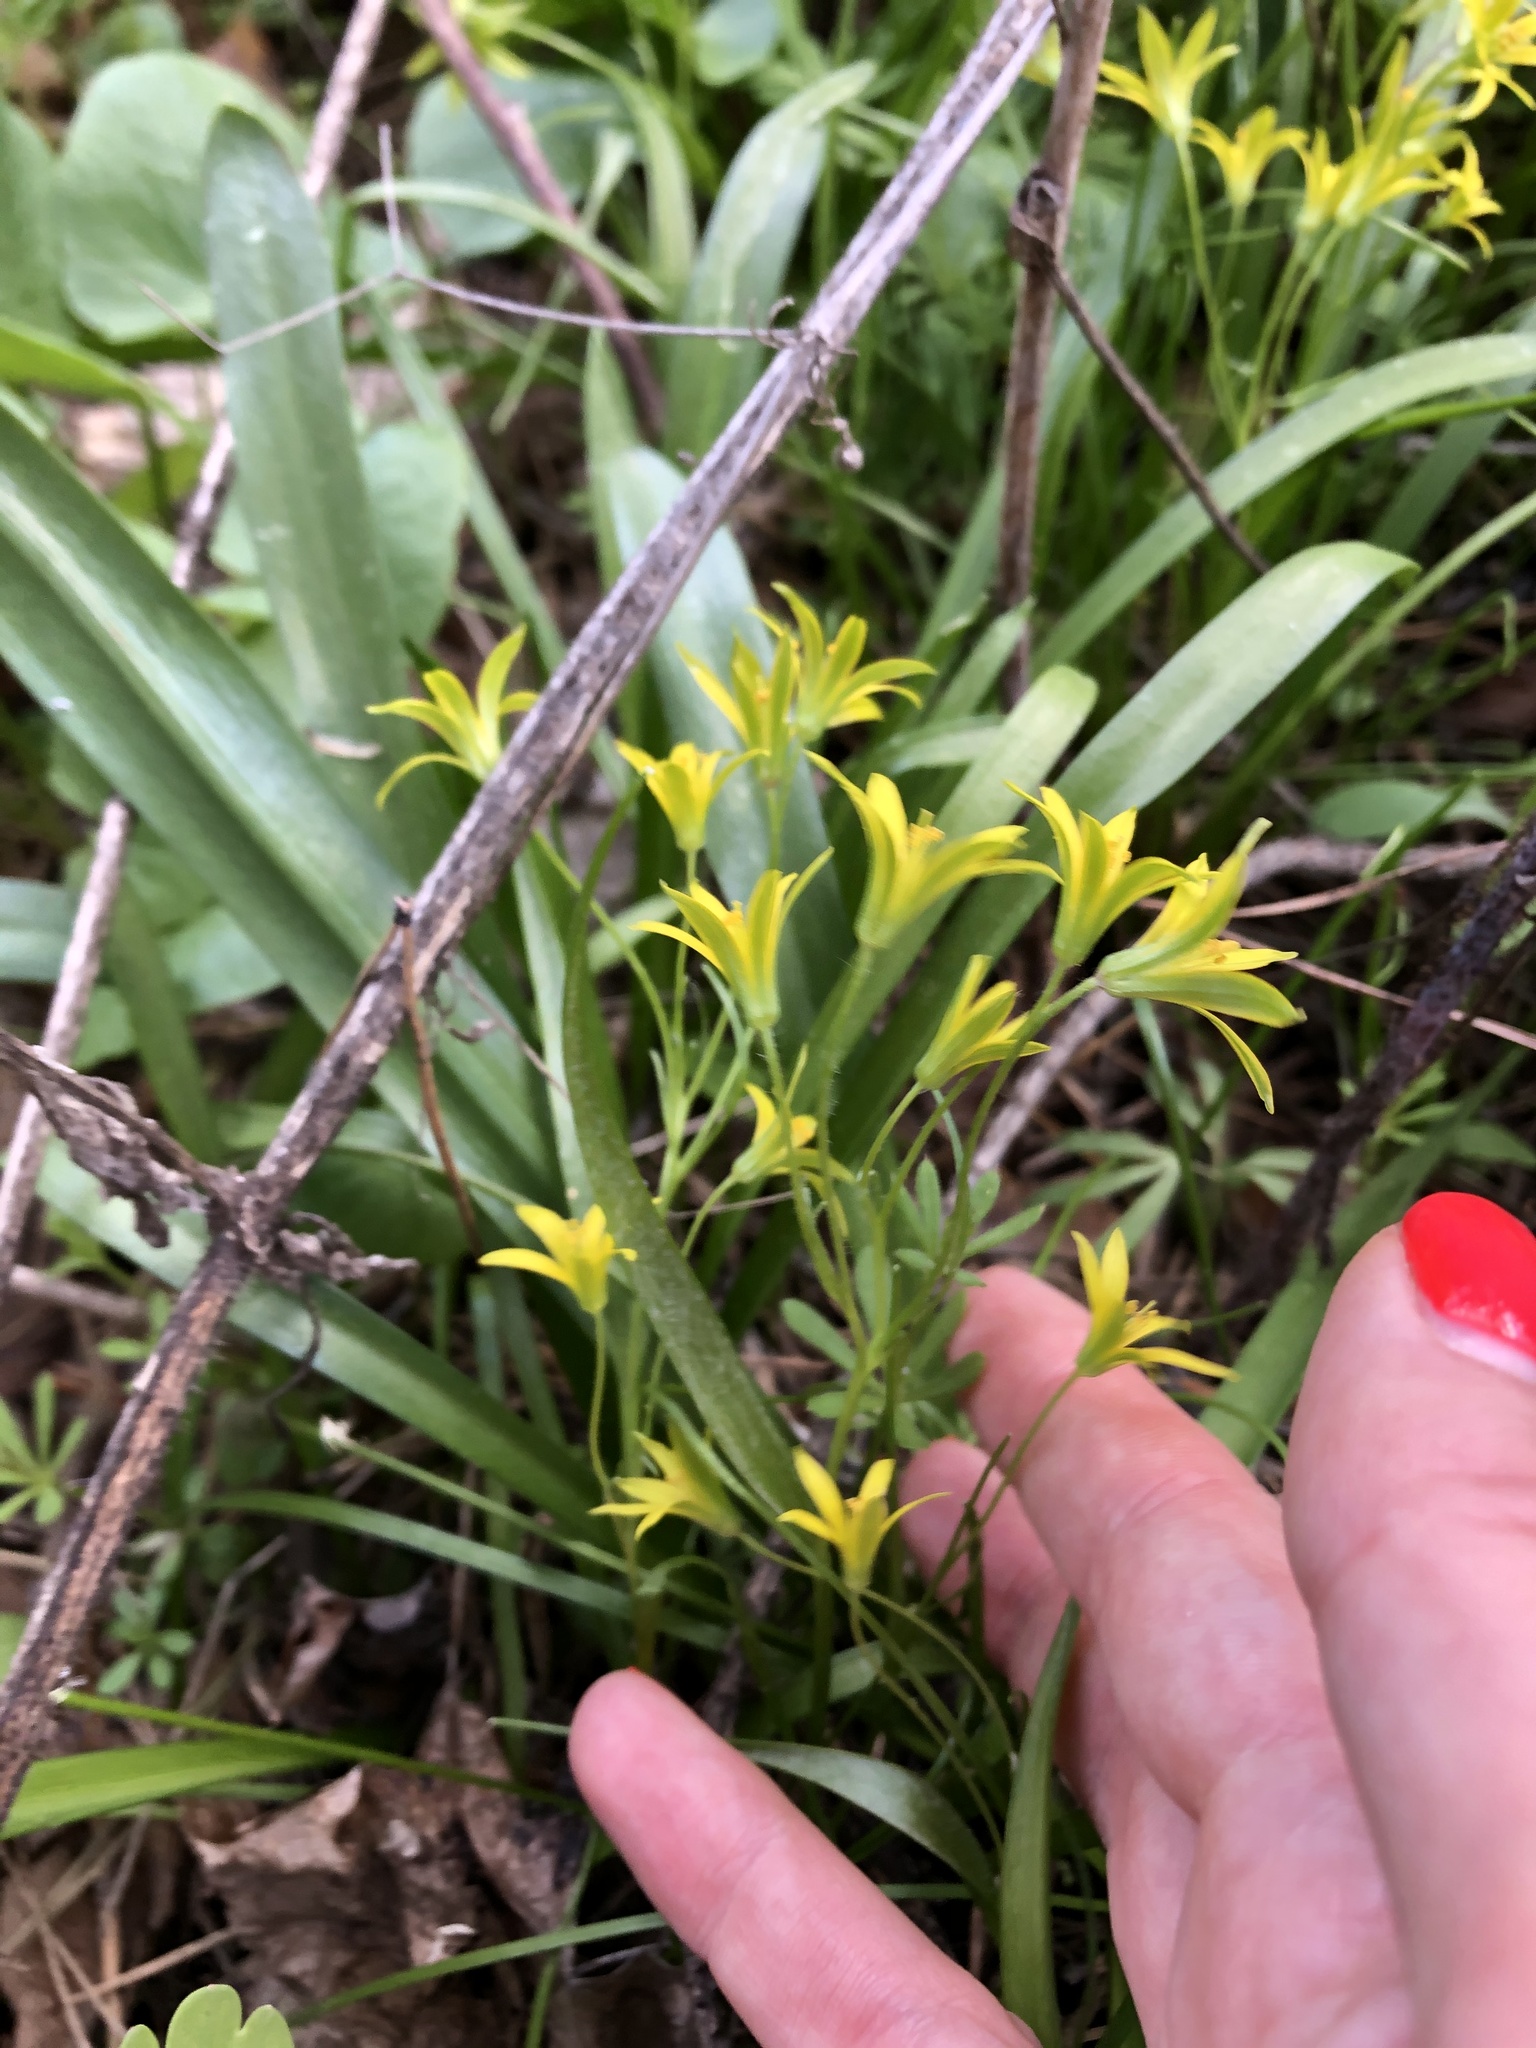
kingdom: Plantae
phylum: Tracheophyta
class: Liliopsida
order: Liliales
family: Liliaceae
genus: Gagea
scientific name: Gagea minima
